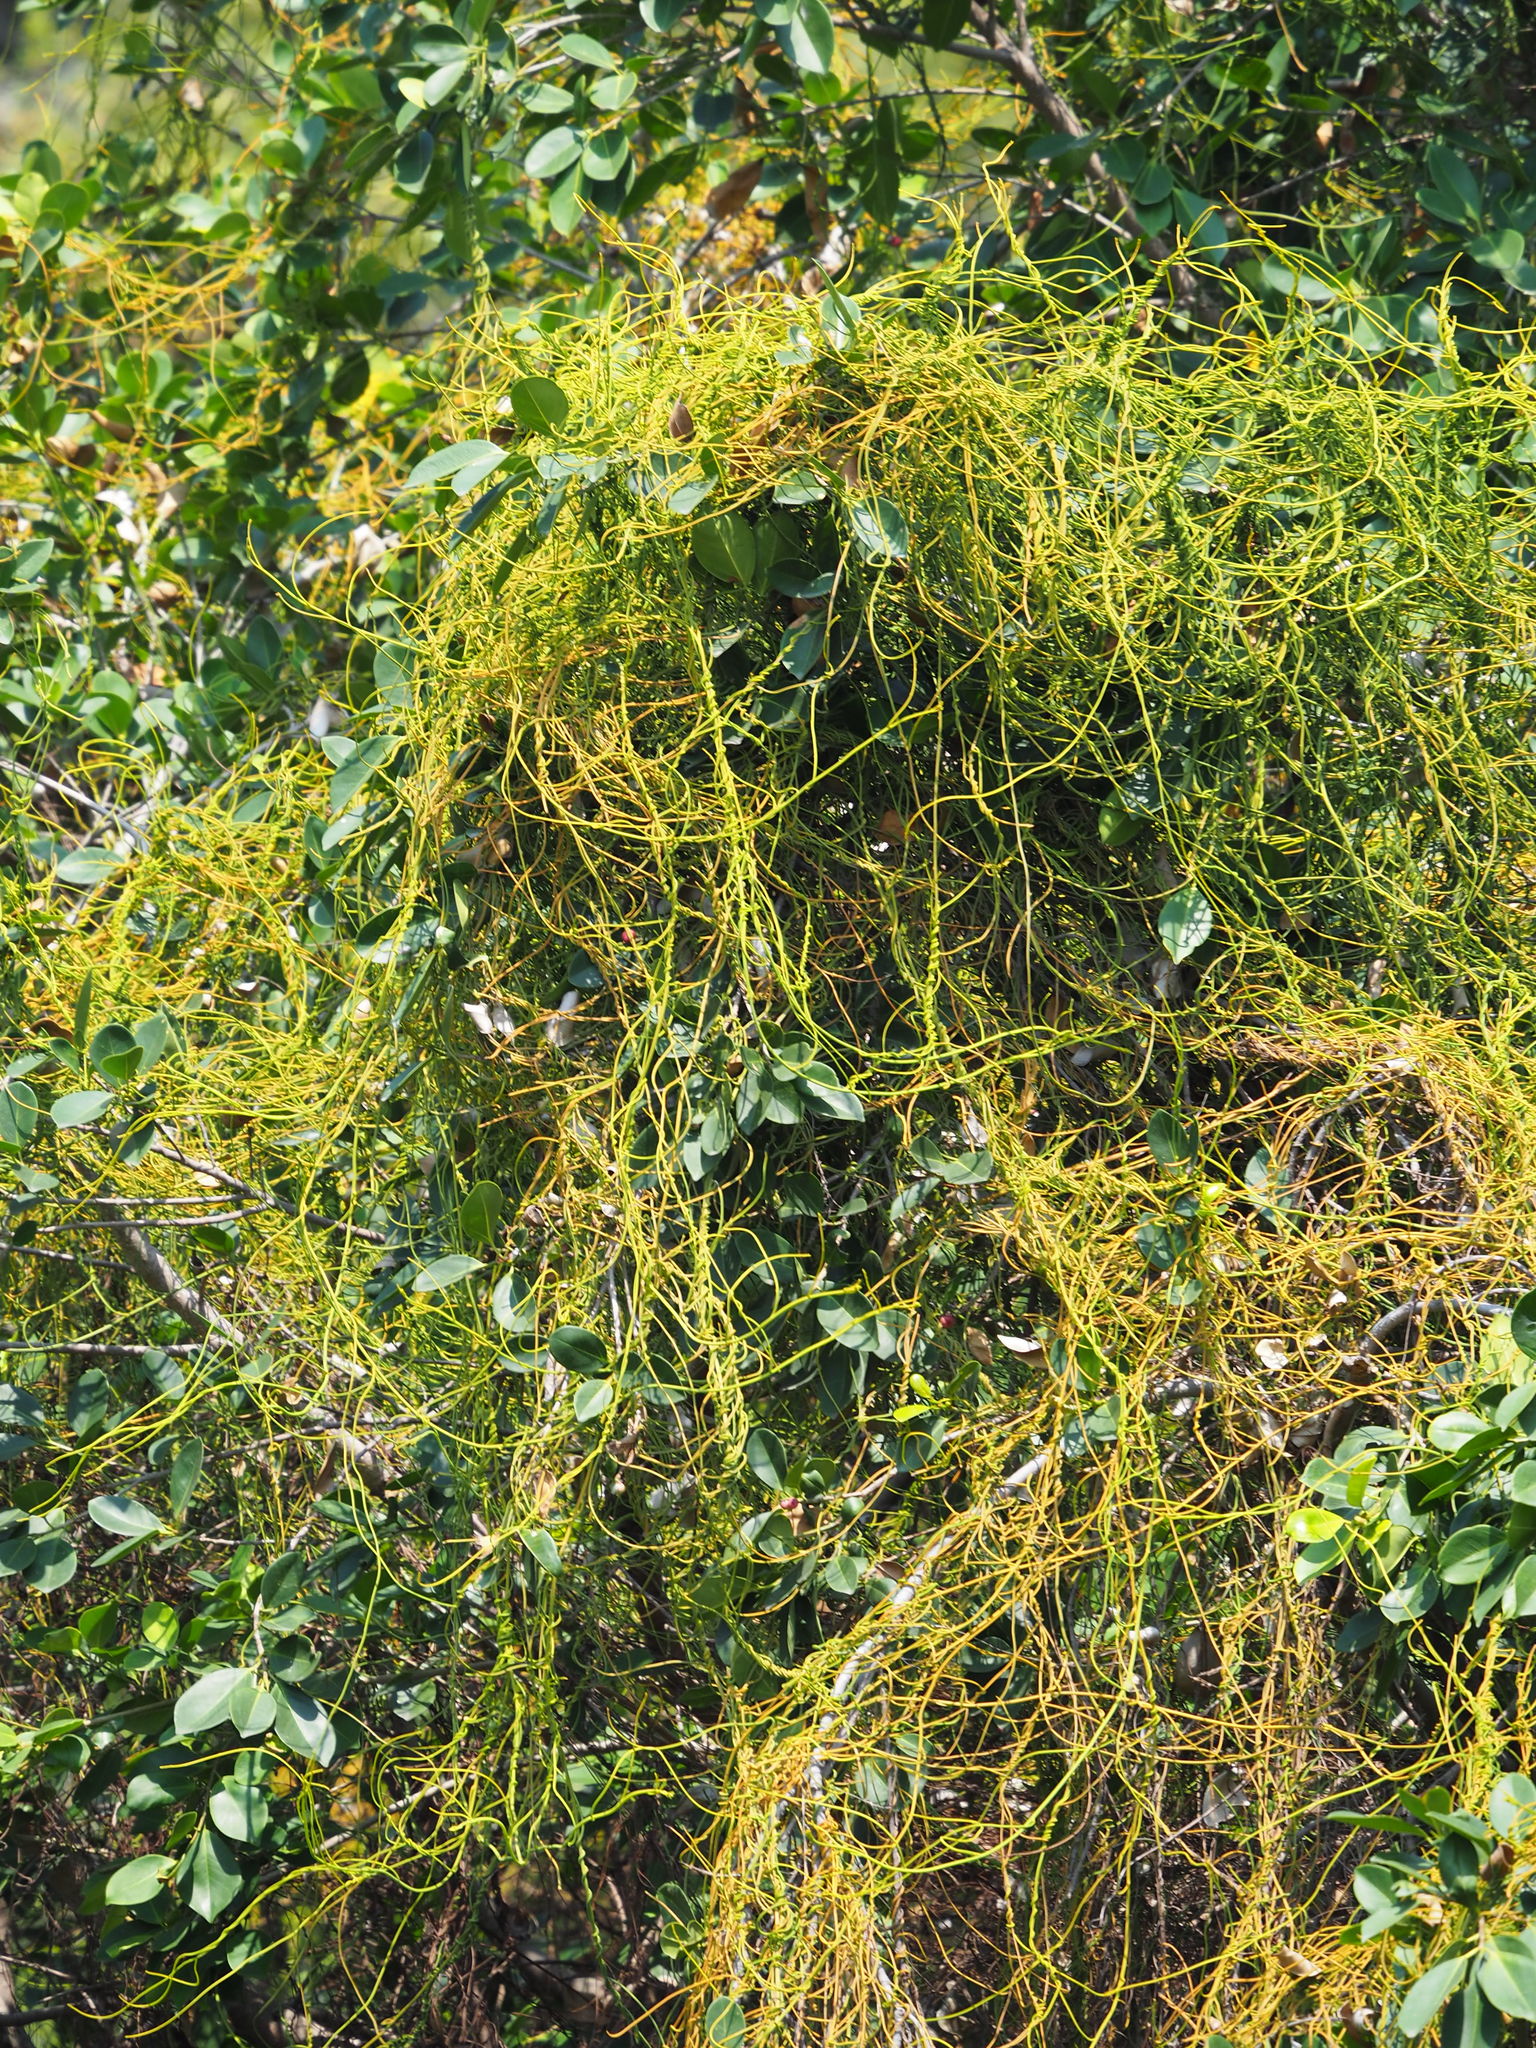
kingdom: Plantae
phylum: Tracheophyta
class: Magnoliopsida
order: Laurales
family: Lauraceae
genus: Cassytha
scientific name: Cassytha filiformis
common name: Dodder-laurel
